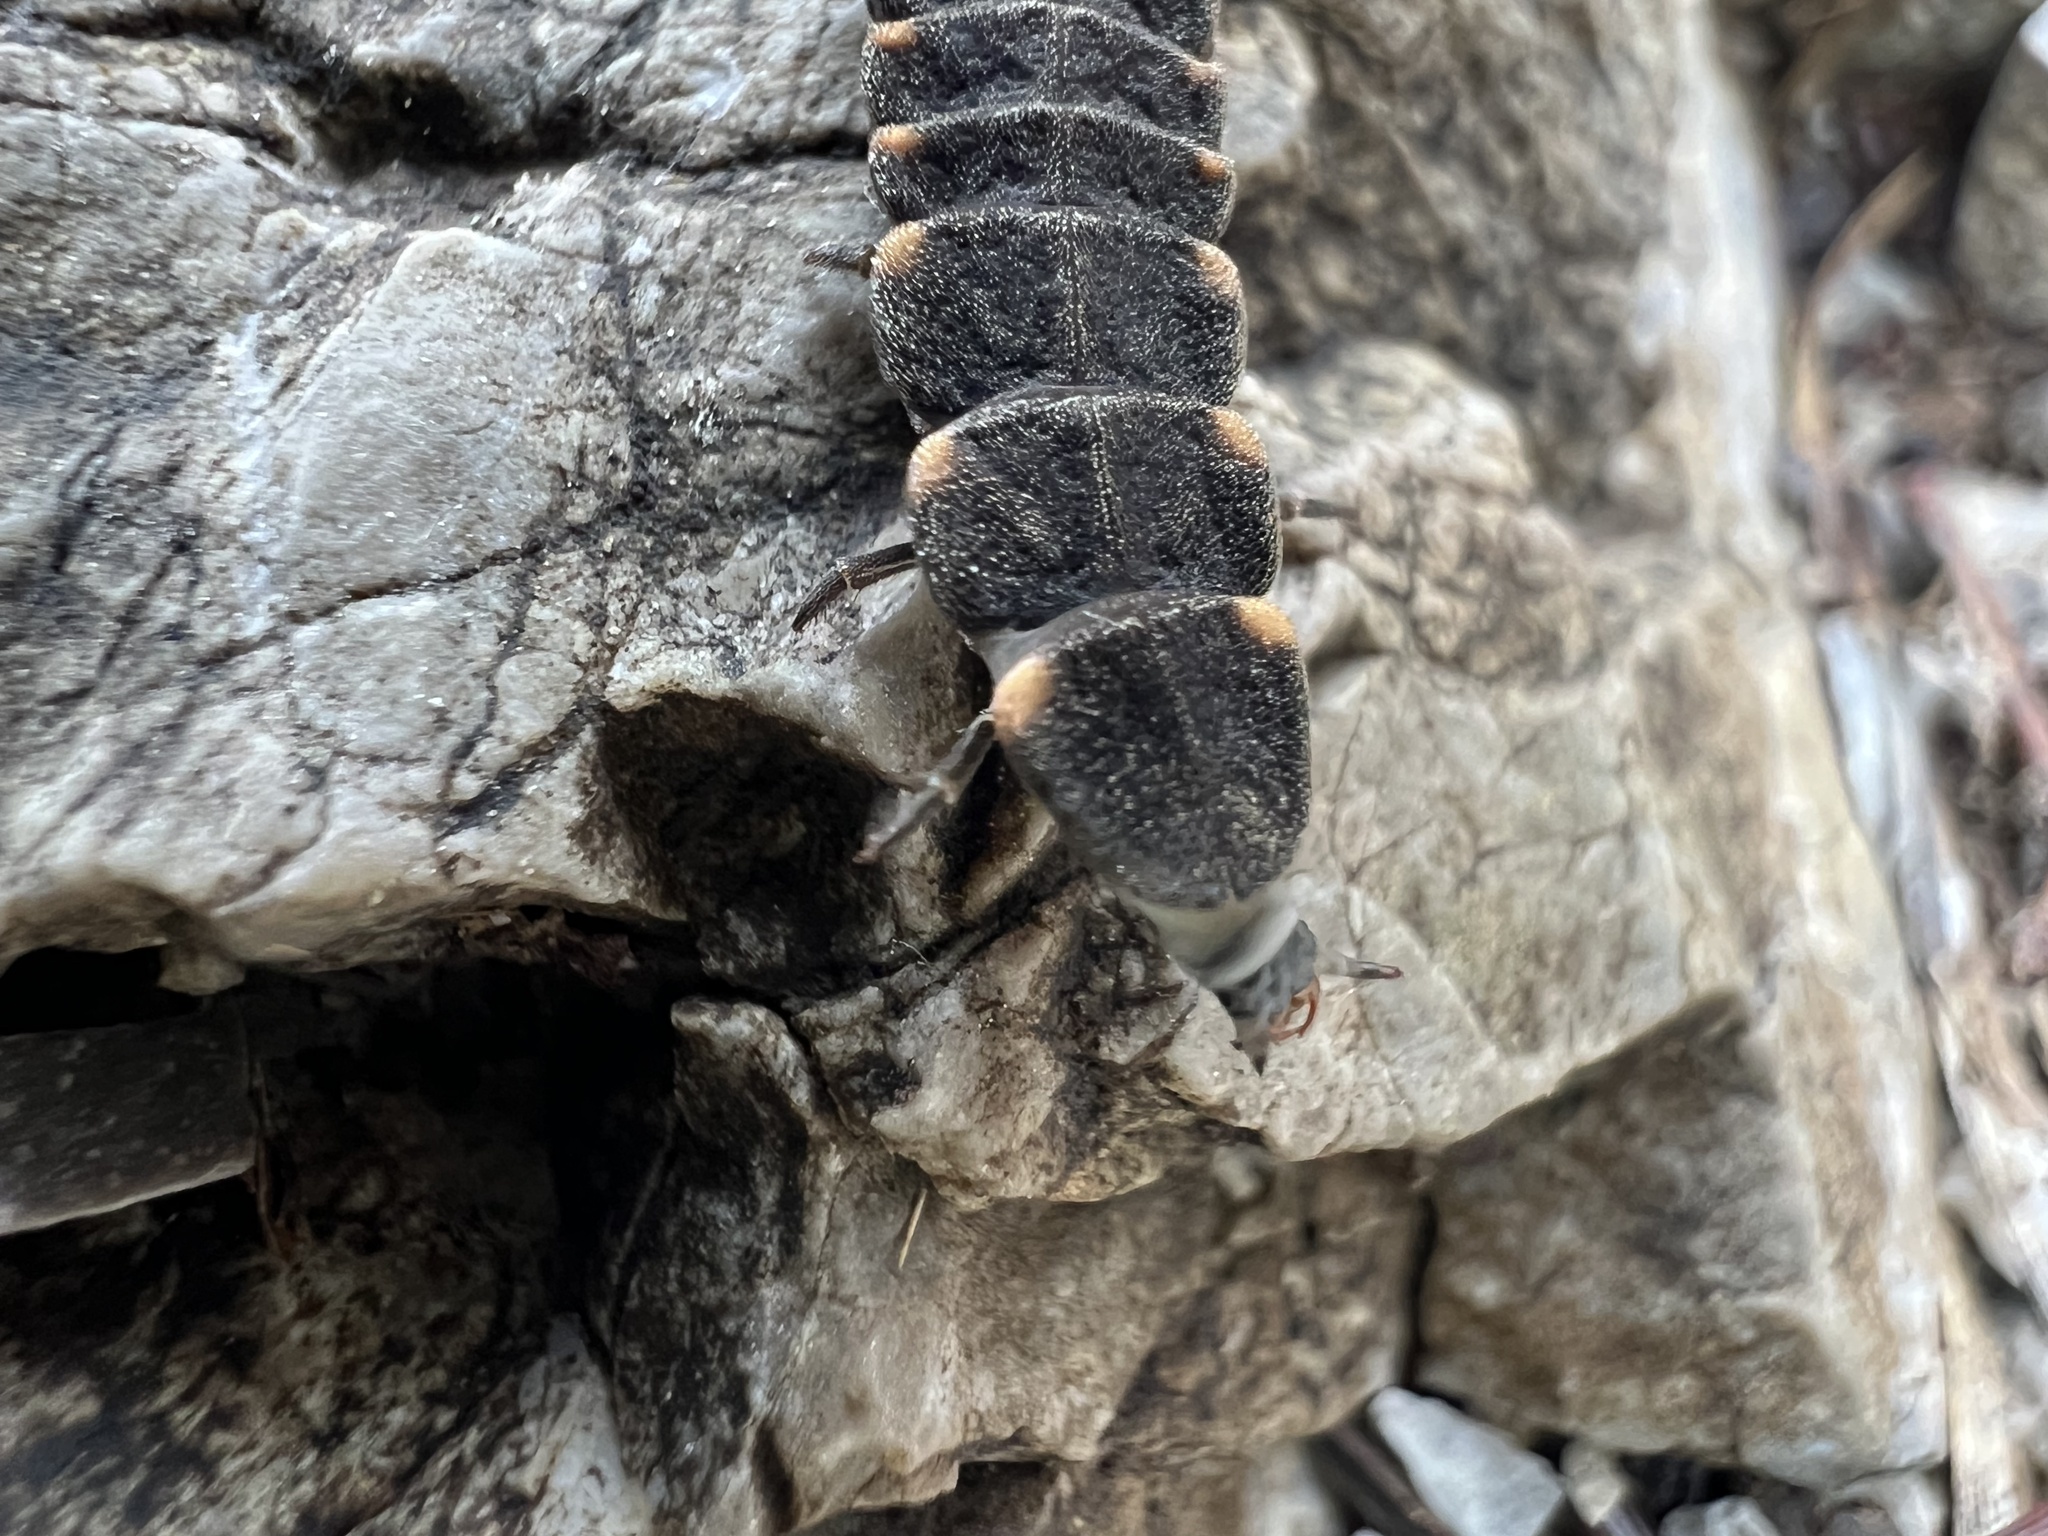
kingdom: Animalia
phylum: Arthropoda
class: Insecta
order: Coleoptera
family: Lampyridae
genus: Lampyris
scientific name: Lampyris noctiluca
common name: Glow-worm
